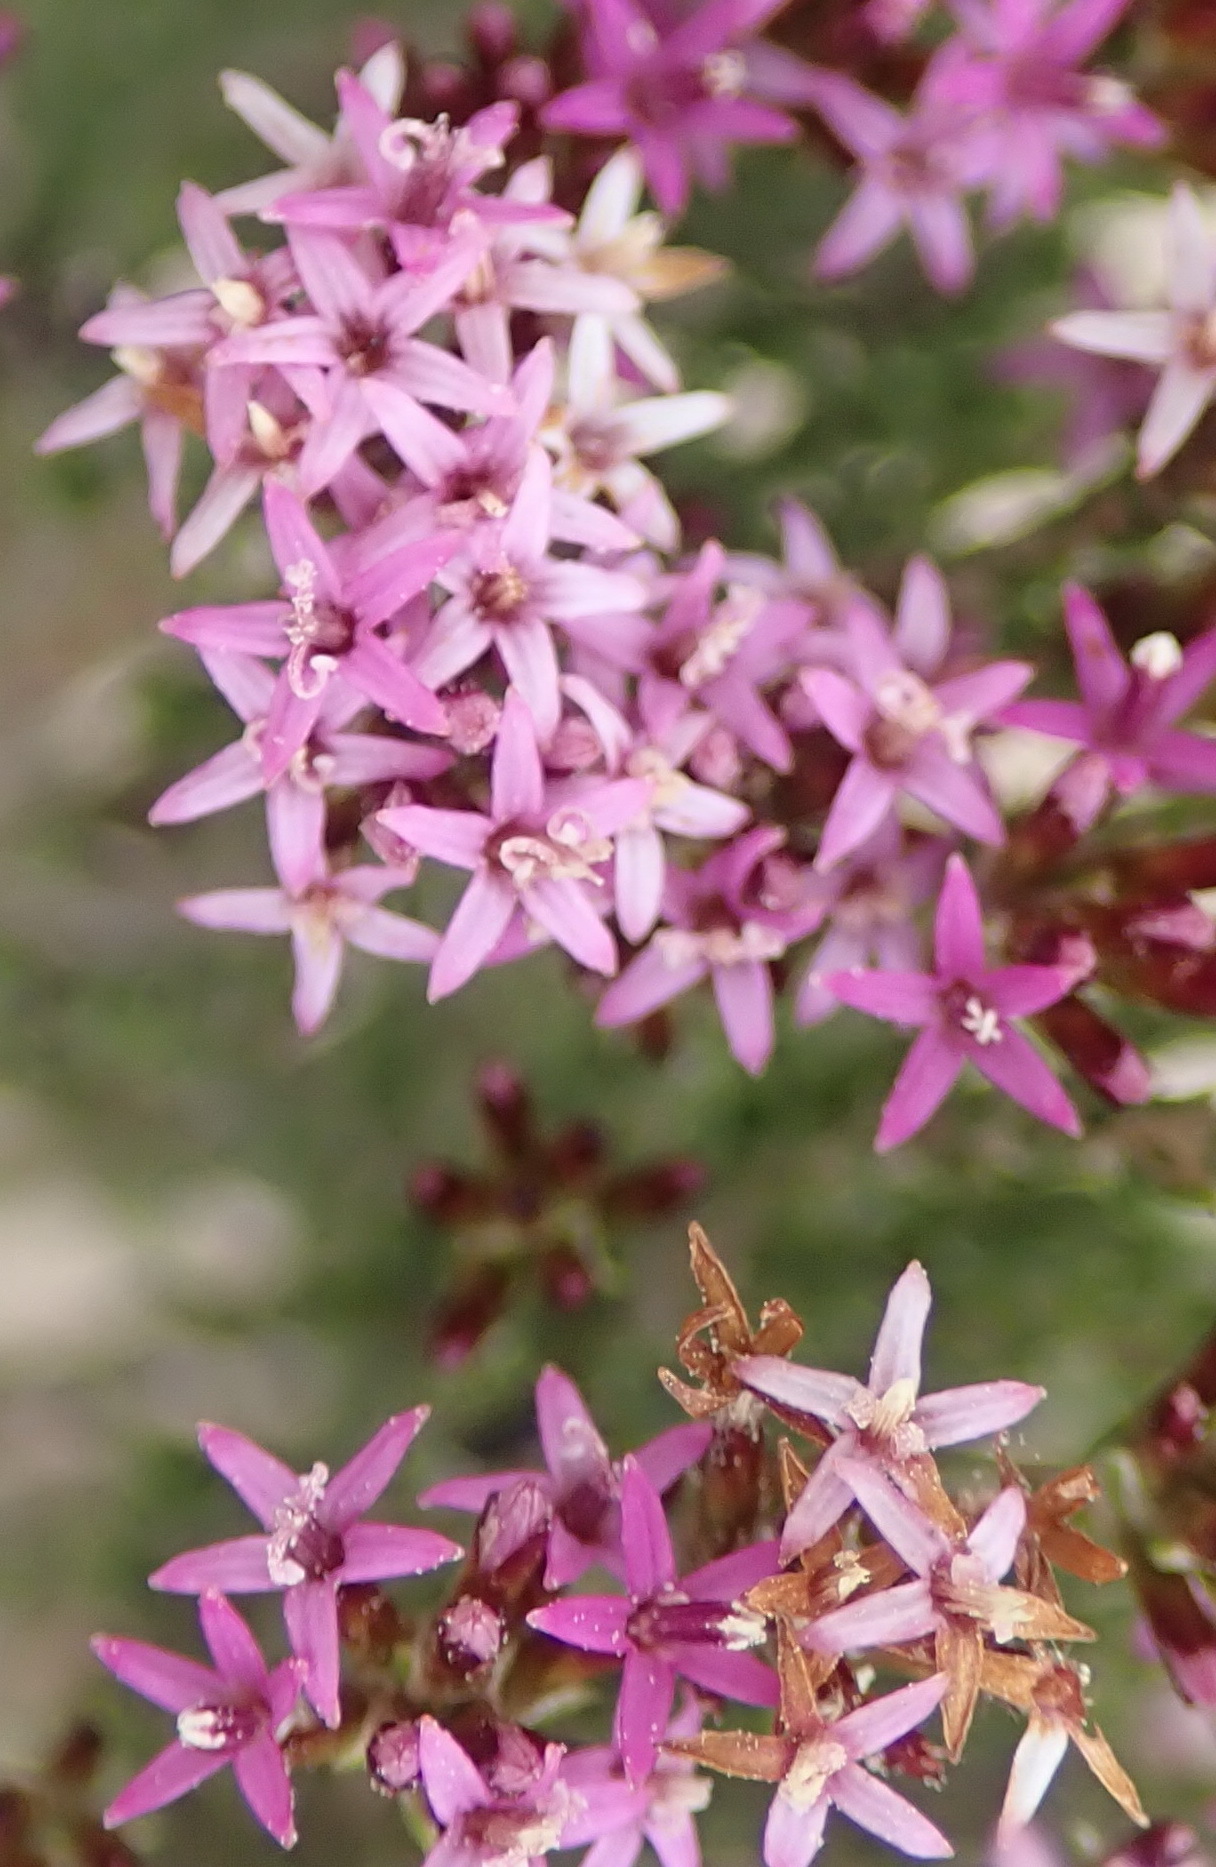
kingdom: Plantae
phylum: Tracheophyta
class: Magnoliopsida
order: Asterales
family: Asteraceae
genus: Stoebe
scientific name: Stoebe rugulosa
